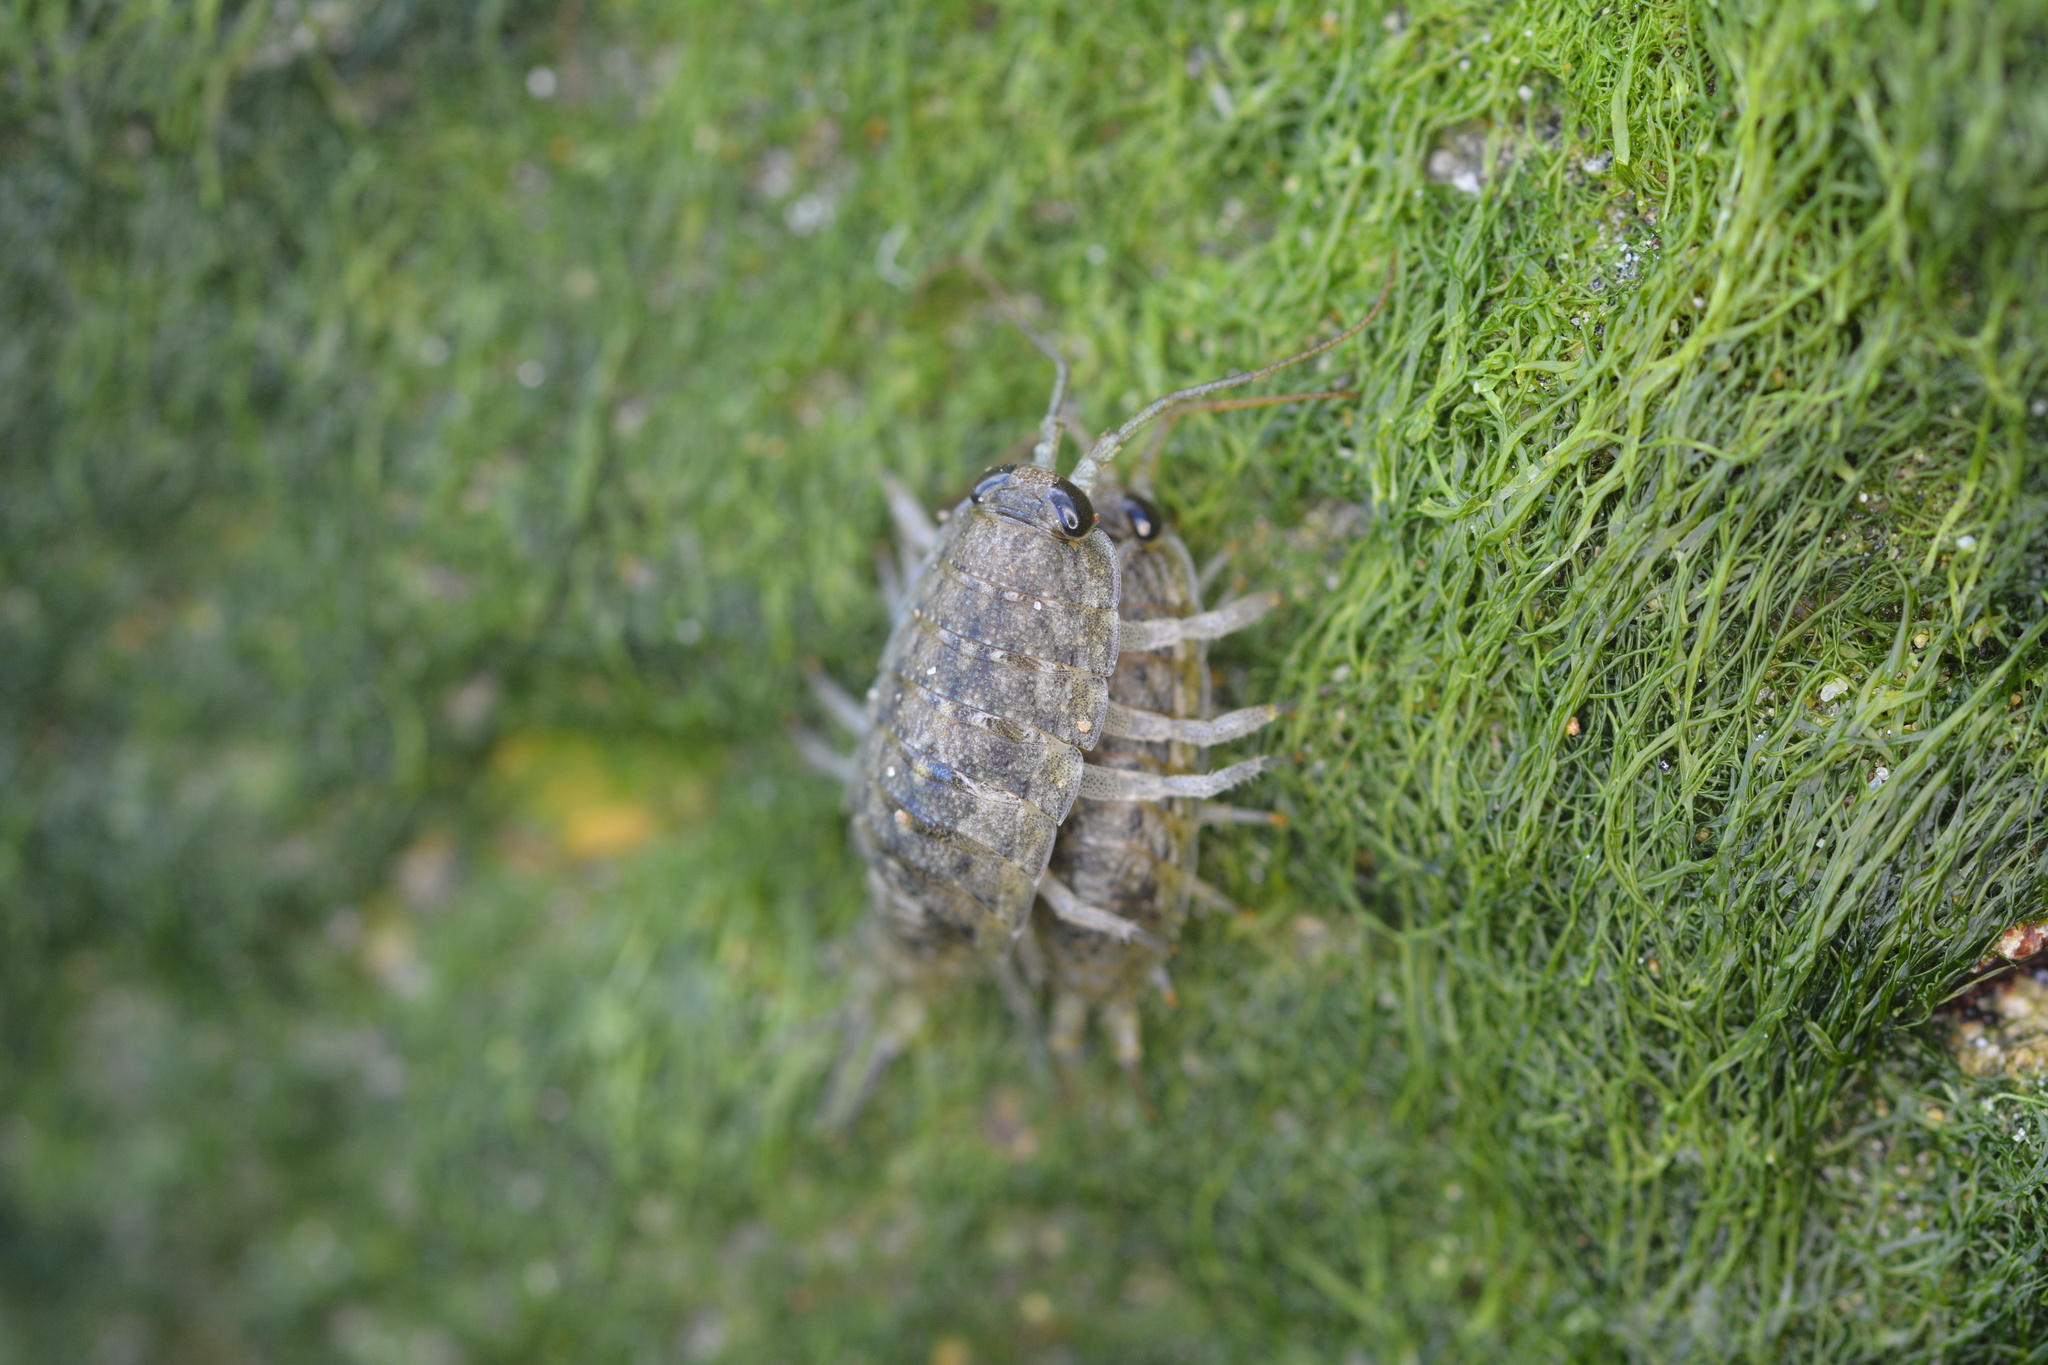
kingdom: Animalia
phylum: Arthropoda
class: Malacostraca
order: Isopoda
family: Ligiidae
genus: Ligia
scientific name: Ligia occidentalis
